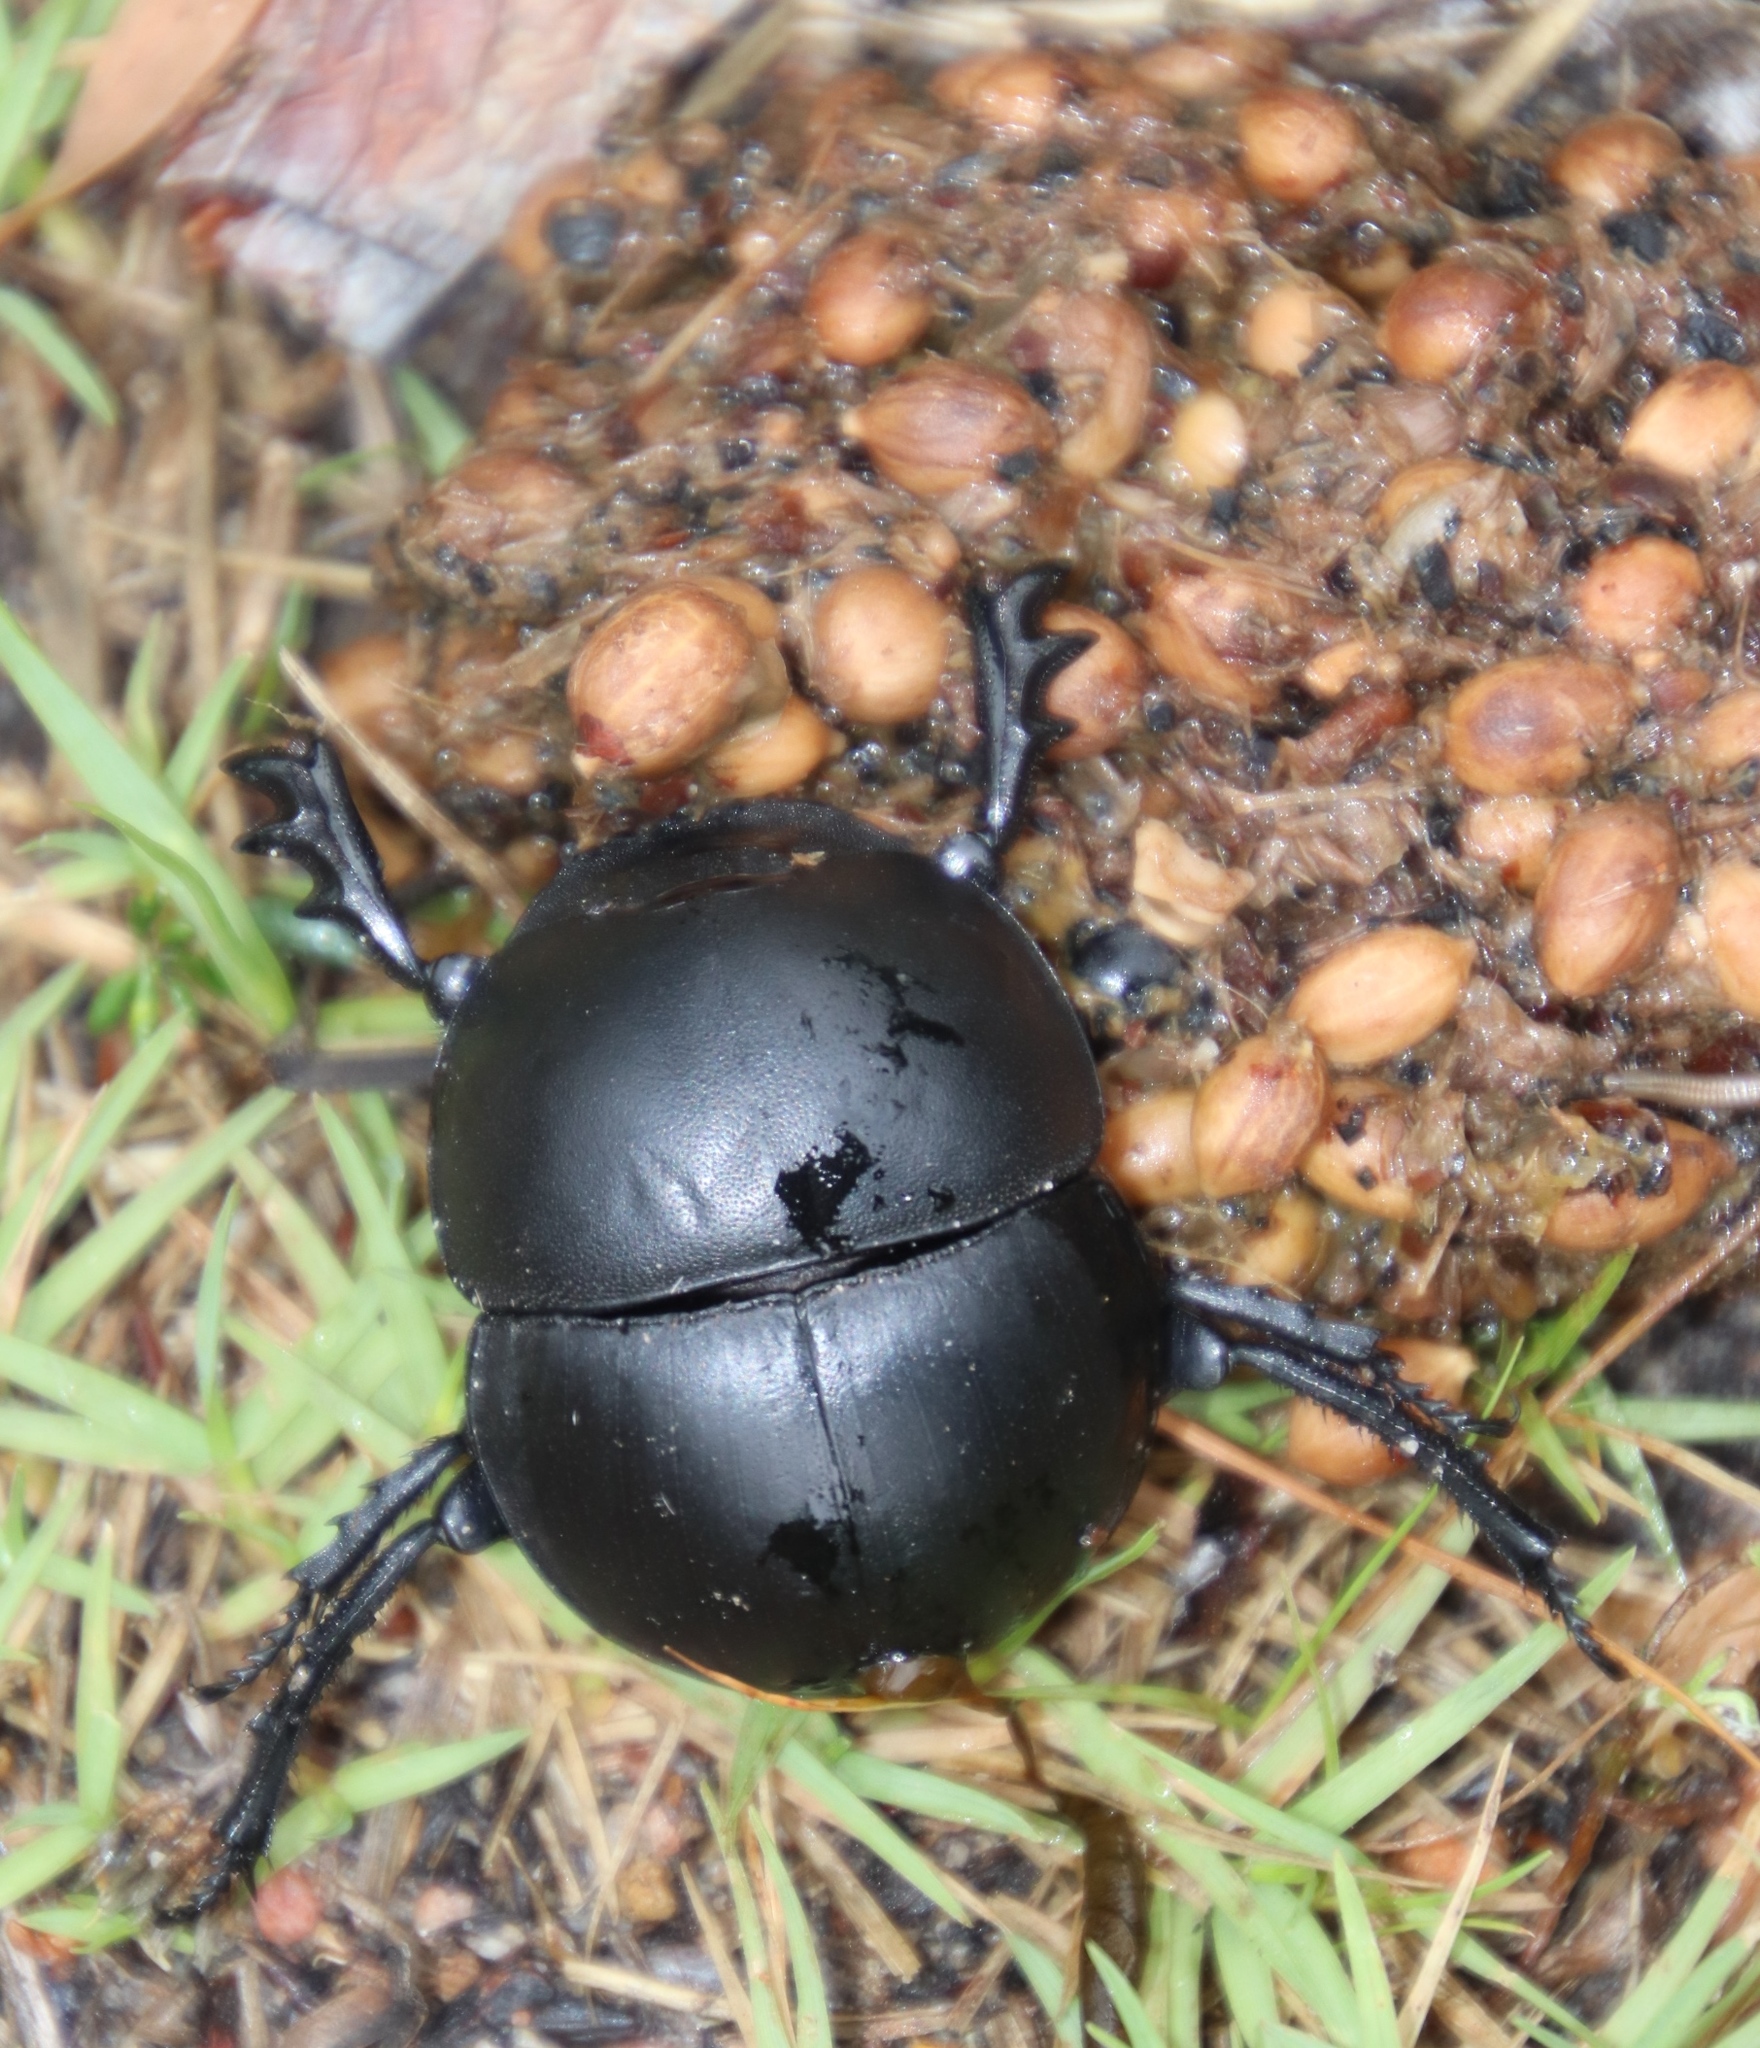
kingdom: Animalia
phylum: Arthropoda
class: Insecta
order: Coleoptera
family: Scarabaeidae
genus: Circellium
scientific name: Circellium bacchus
